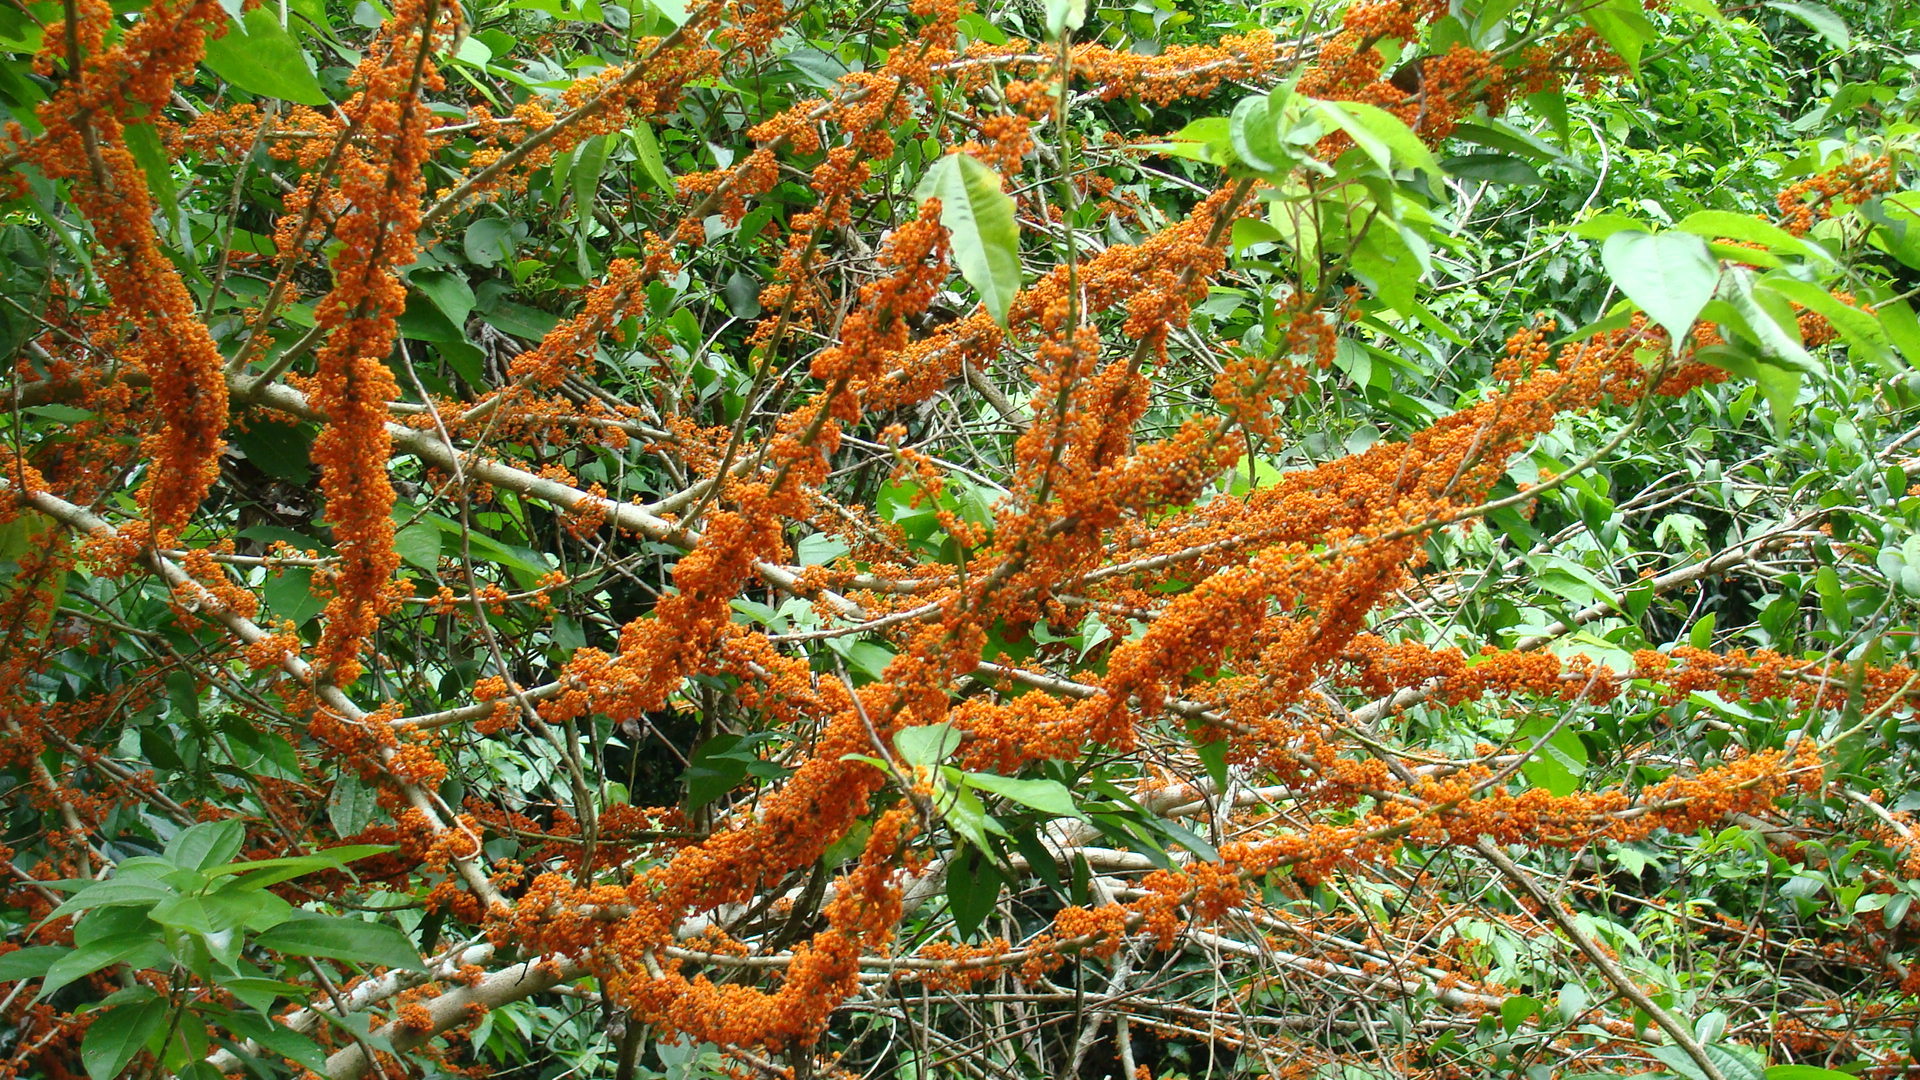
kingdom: Plantae
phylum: Tracheophyta
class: Magnoliopsida
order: Rosales
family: Urticaceae
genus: Urera
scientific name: Urera caracasana
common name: Flameberry
